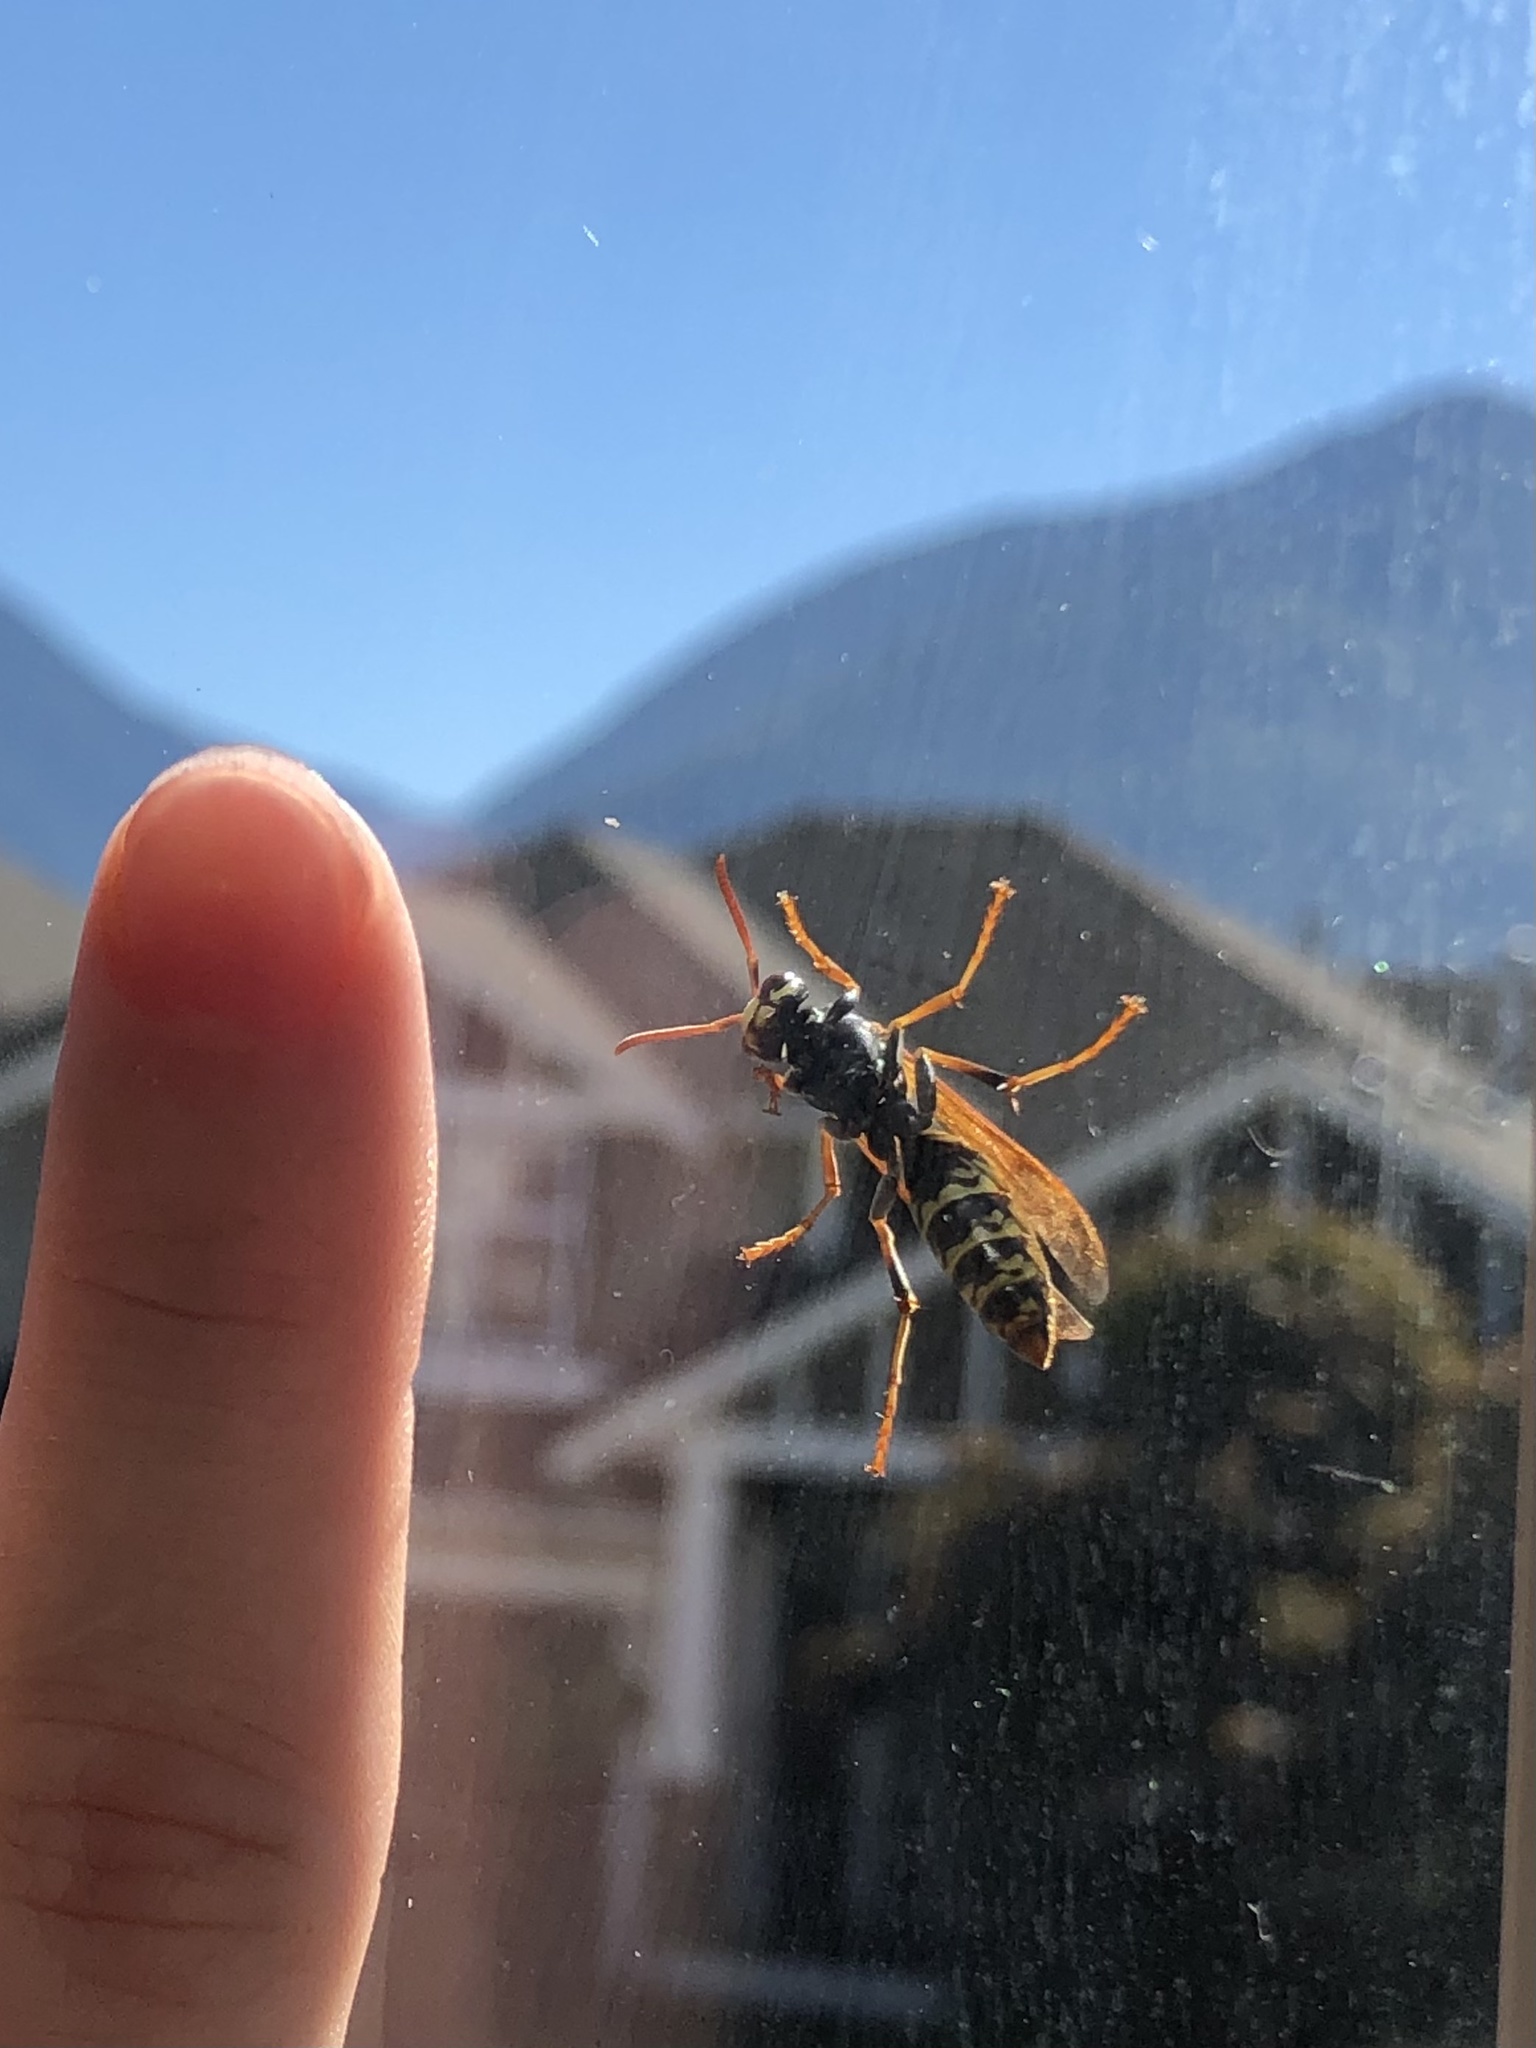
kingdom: Animalia
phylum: Arthropoda
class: Insecta
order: Hymenoptera
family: Eumenidae
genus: Polistes
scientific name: Polistes dominula
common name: Paper wasp
